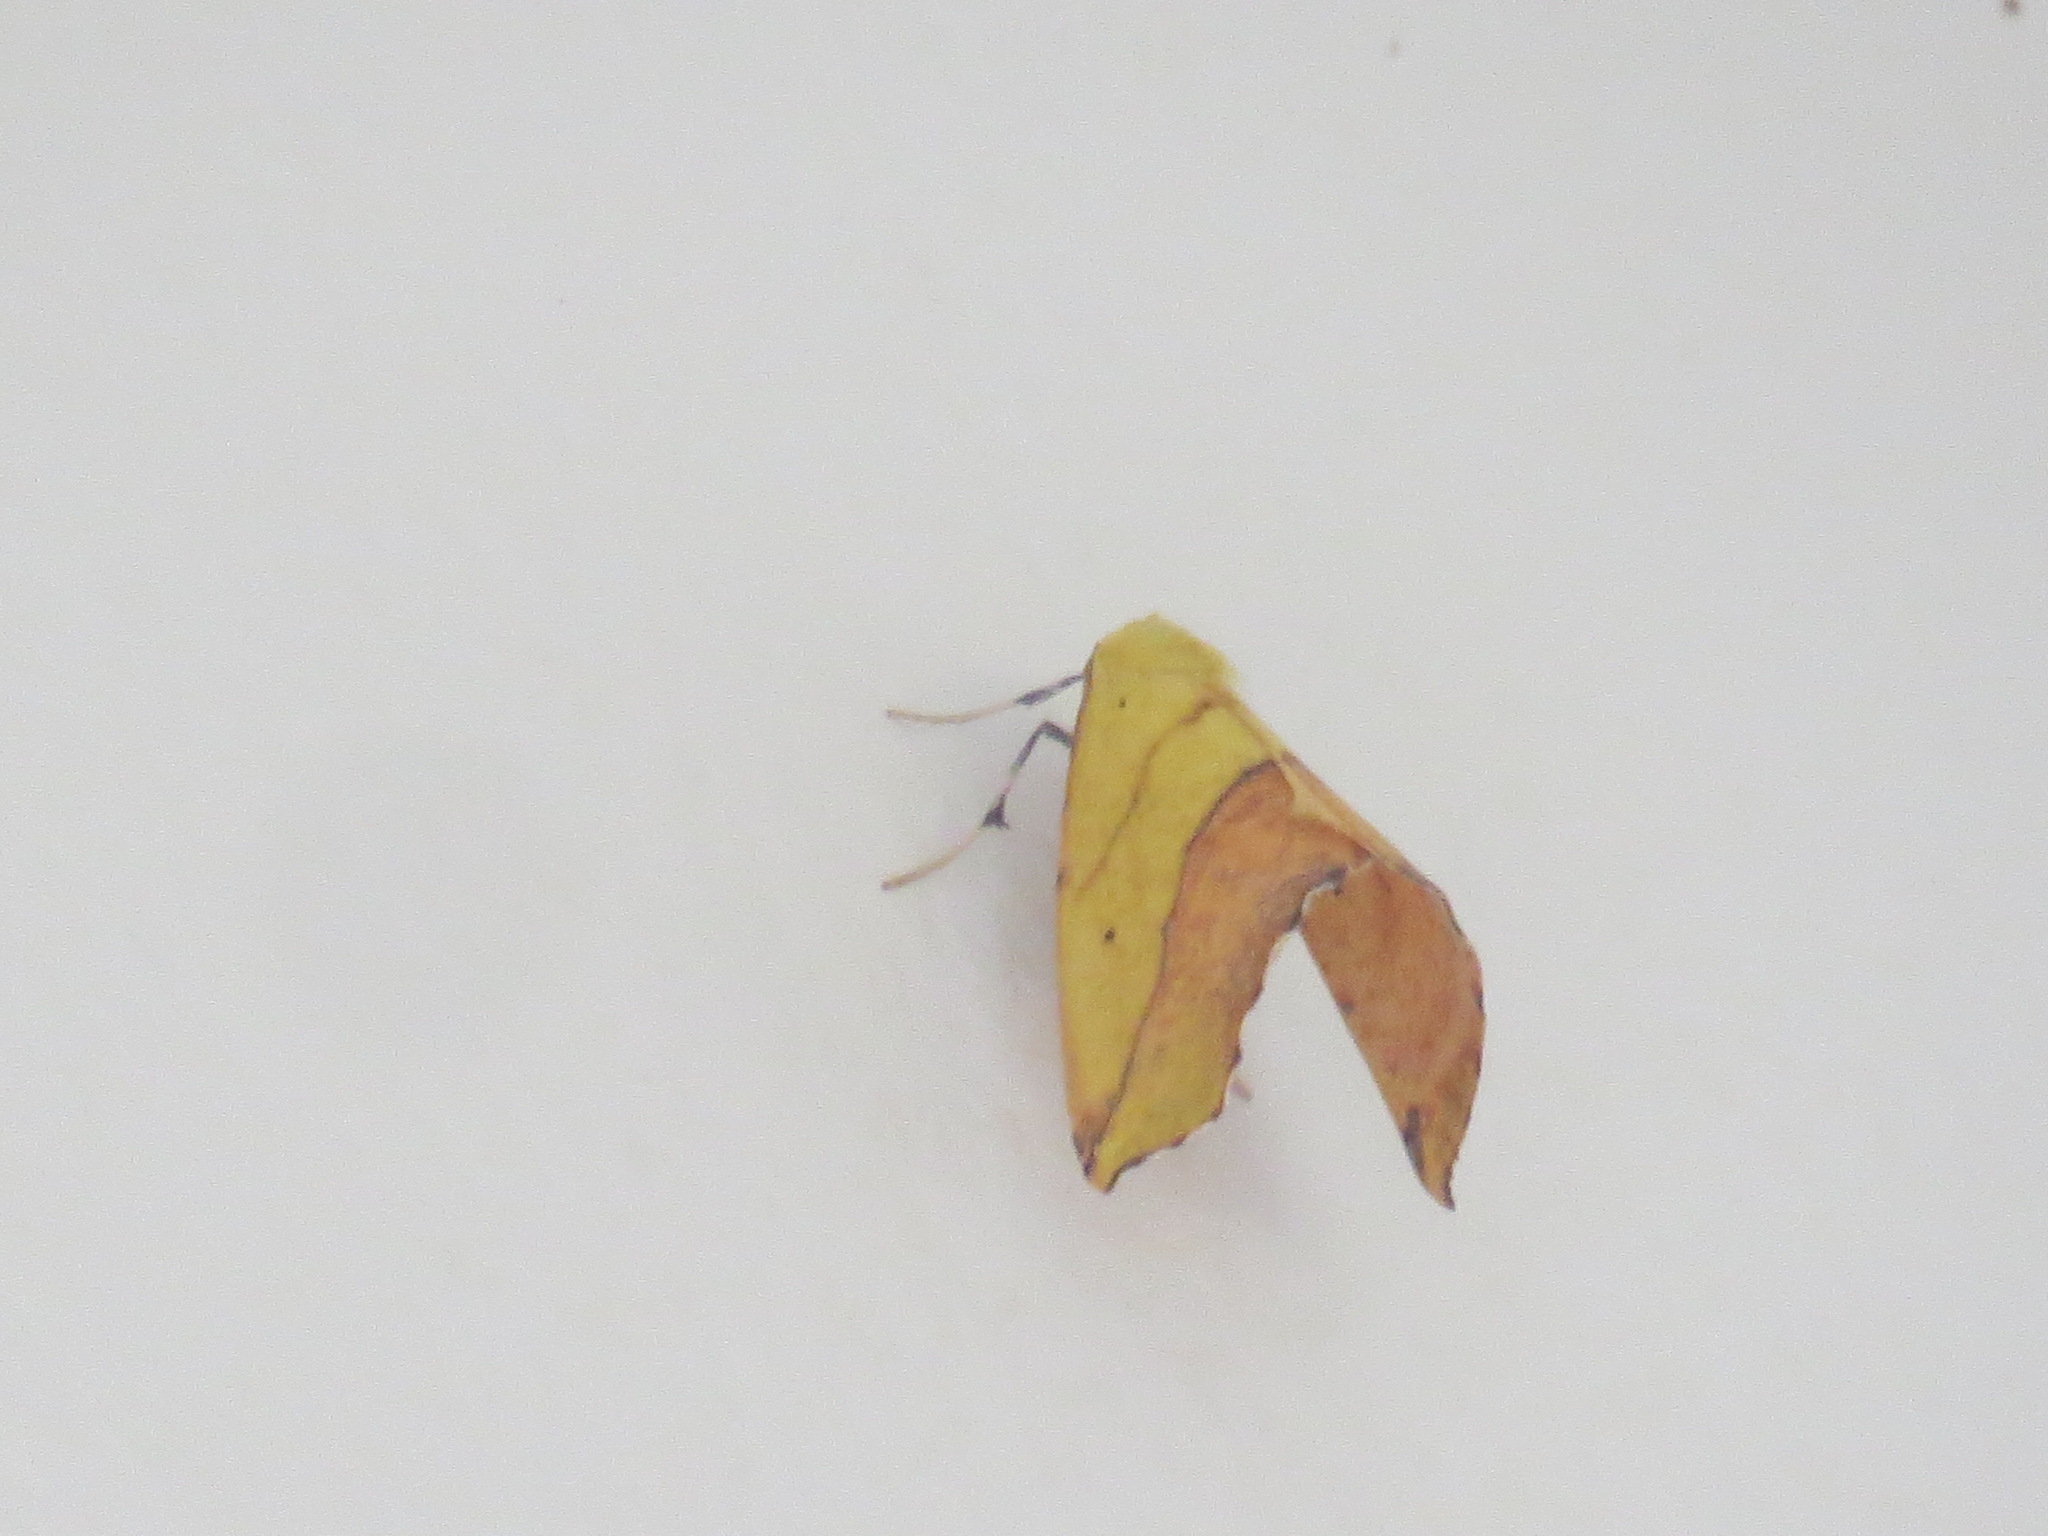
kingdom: Animalia
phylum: Arthropoda
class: Insecta
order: Lepidoptera
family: Geometridae
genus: Sicya
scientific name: Sicya macularia
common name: Sharp-lined yellow
